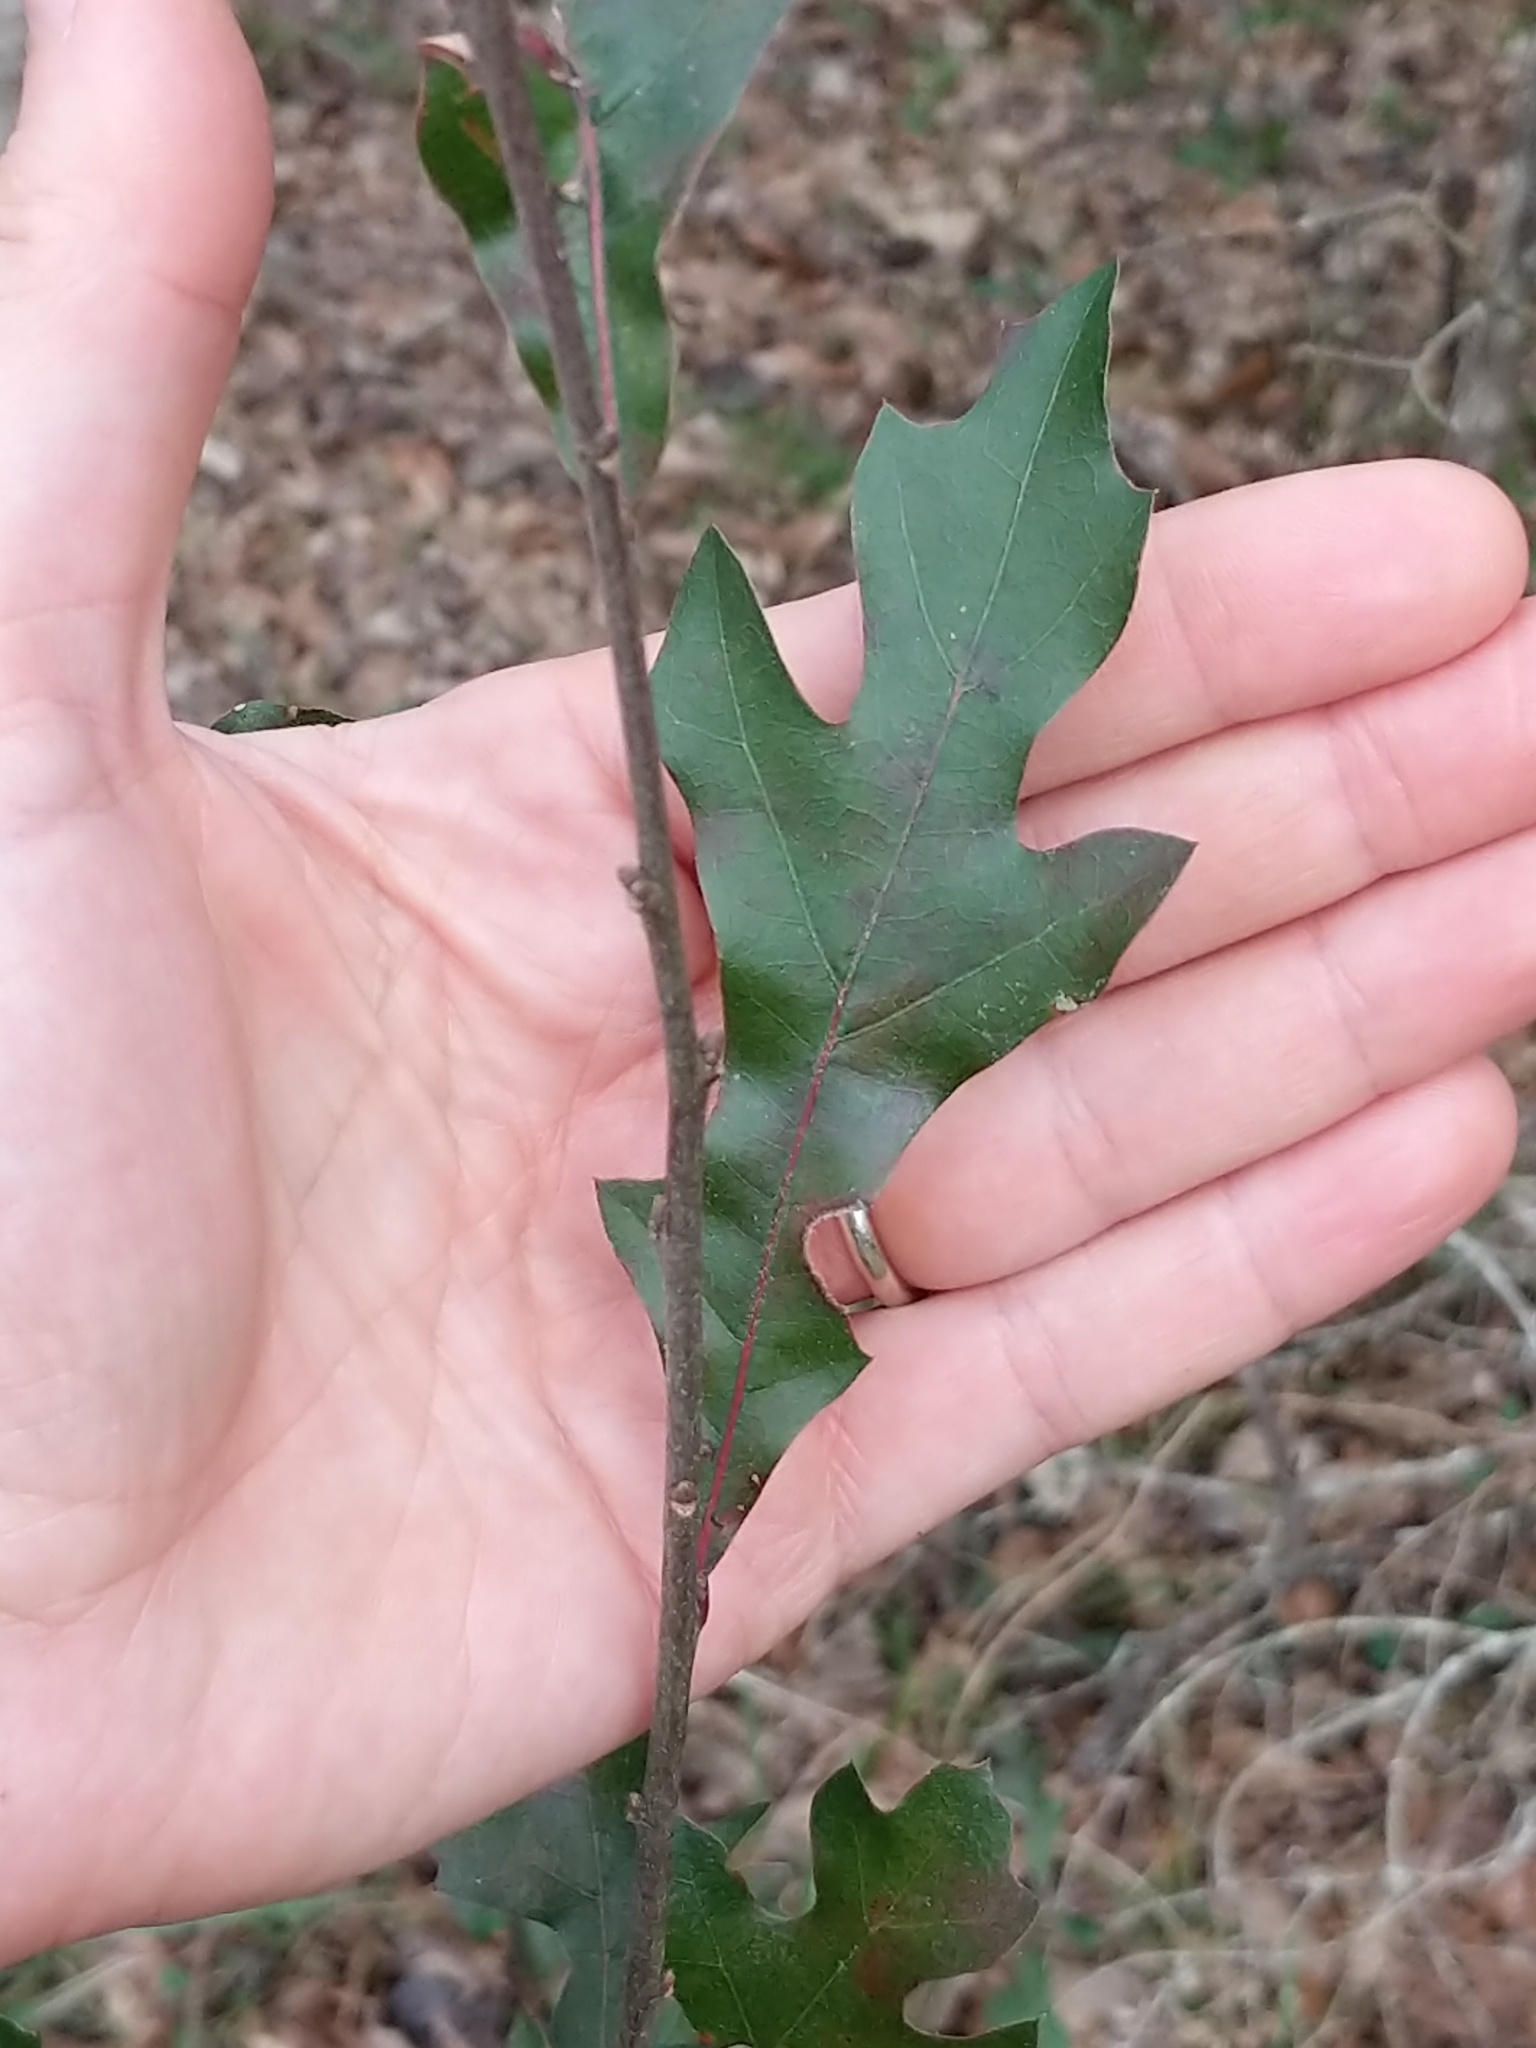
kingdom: Plantae
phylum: Tracheophyta
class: Magnoliopsida
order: Fagales
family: Fagaceae
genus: Quercus
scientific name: Quercus nigra
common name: Water oak
